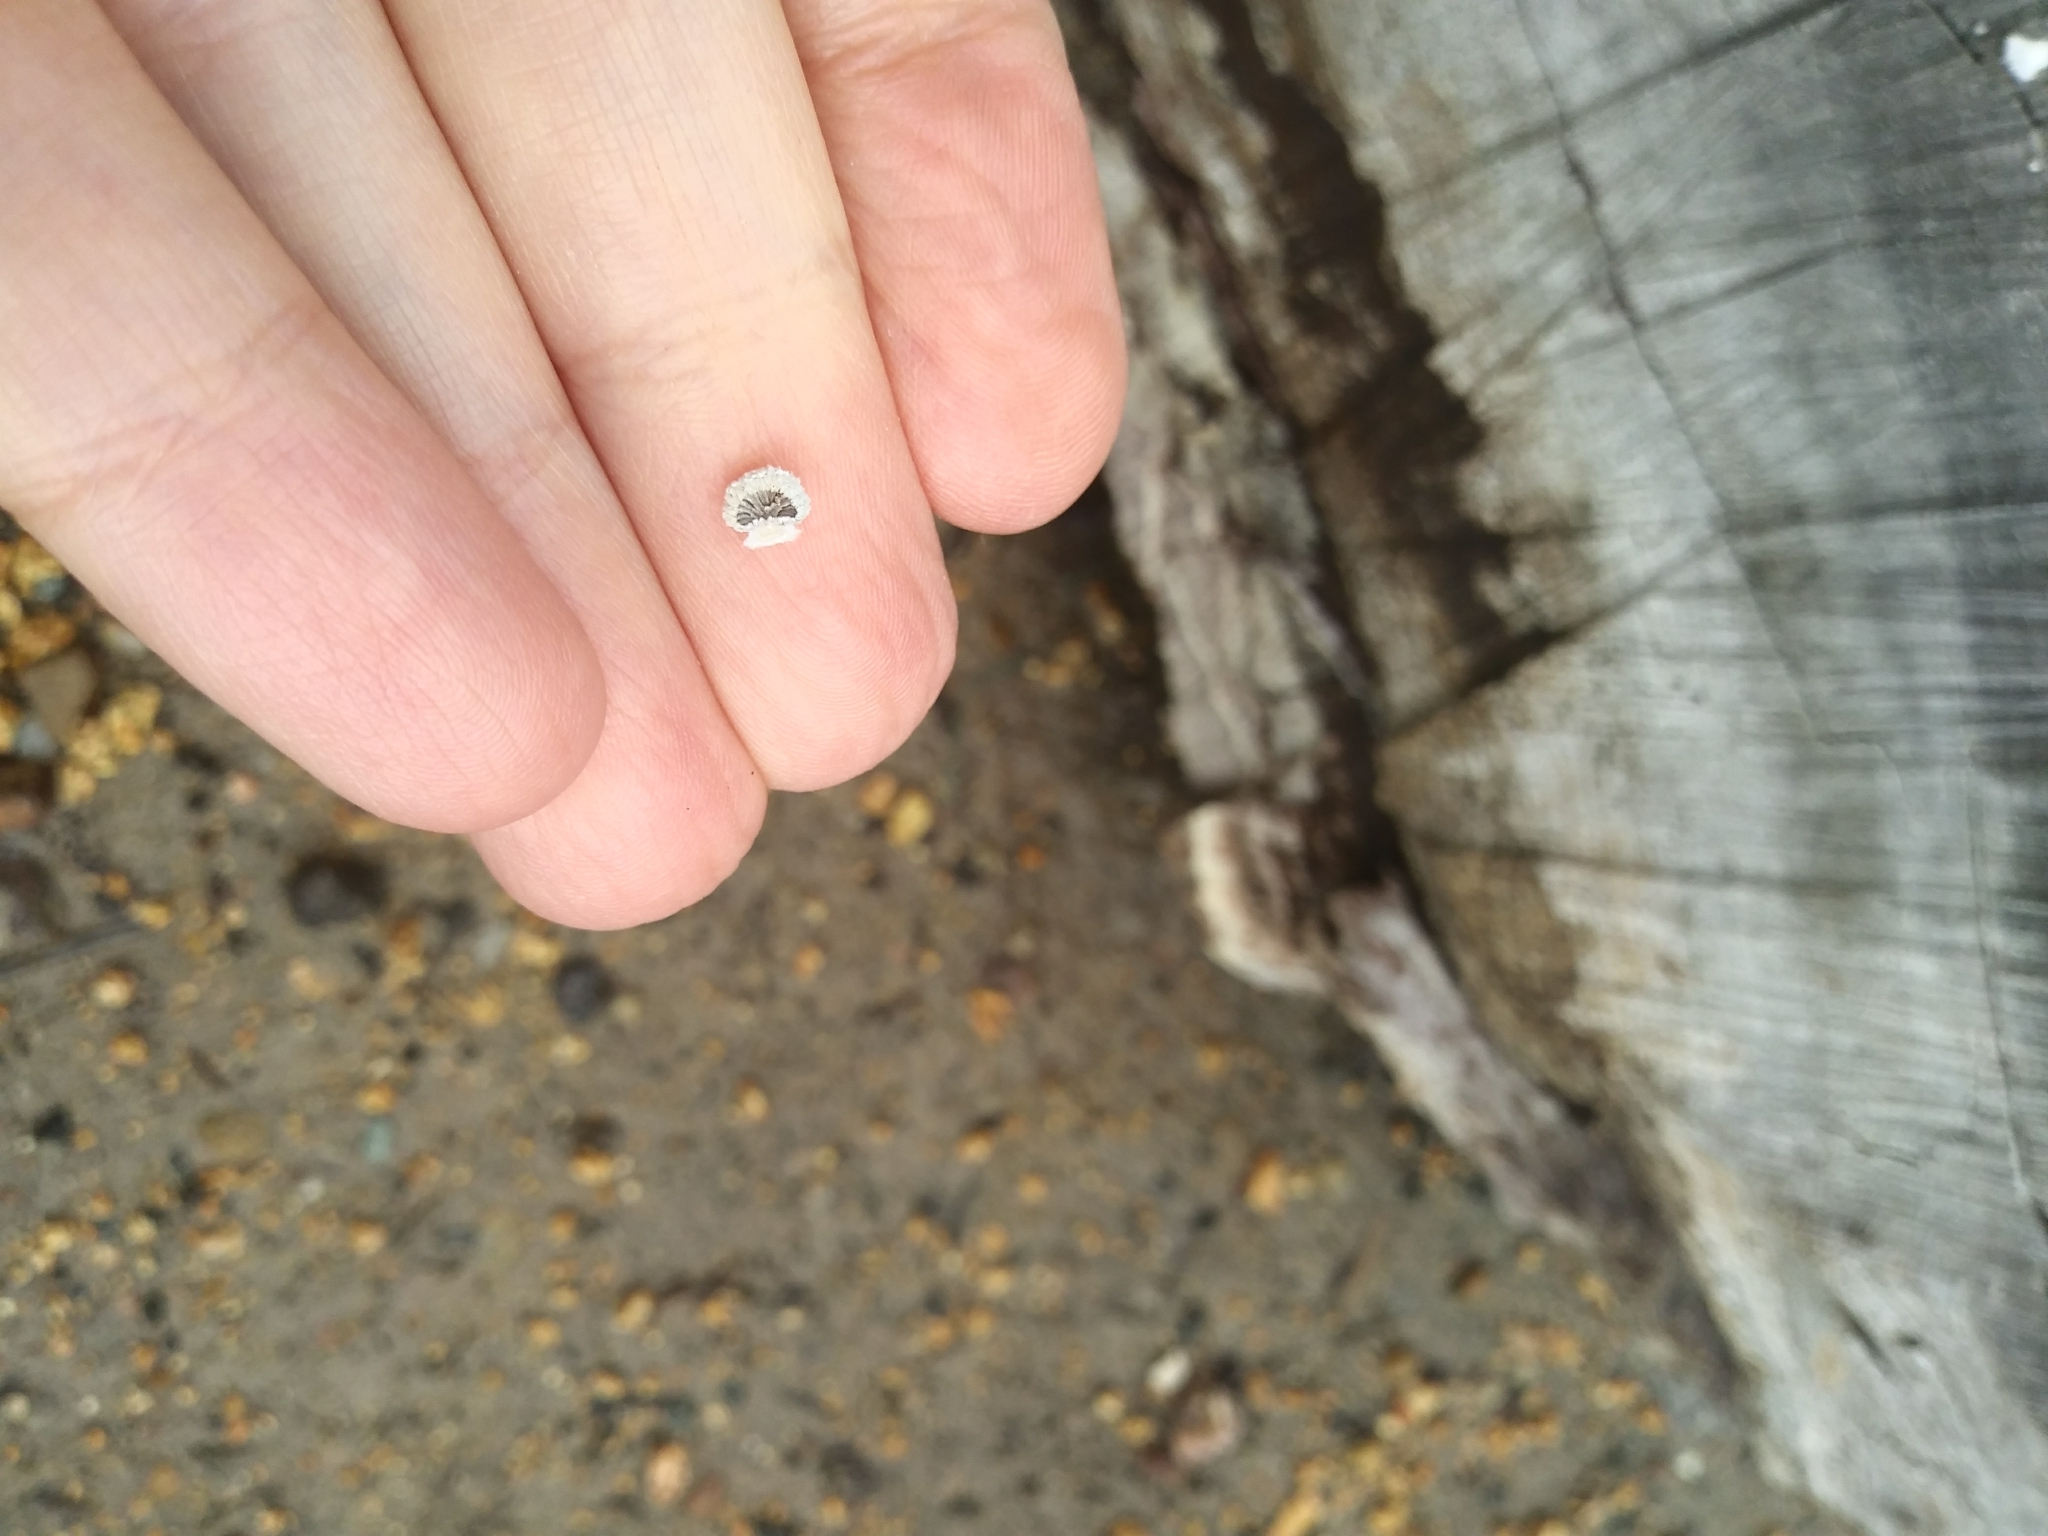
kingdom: Fungi
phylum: Basidiomycota
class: Agaricomycetes
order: Agaricales
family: Schizophyllaceae
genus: Schizophyllum
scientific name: Schizophyllum commune
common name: Common porecrust
